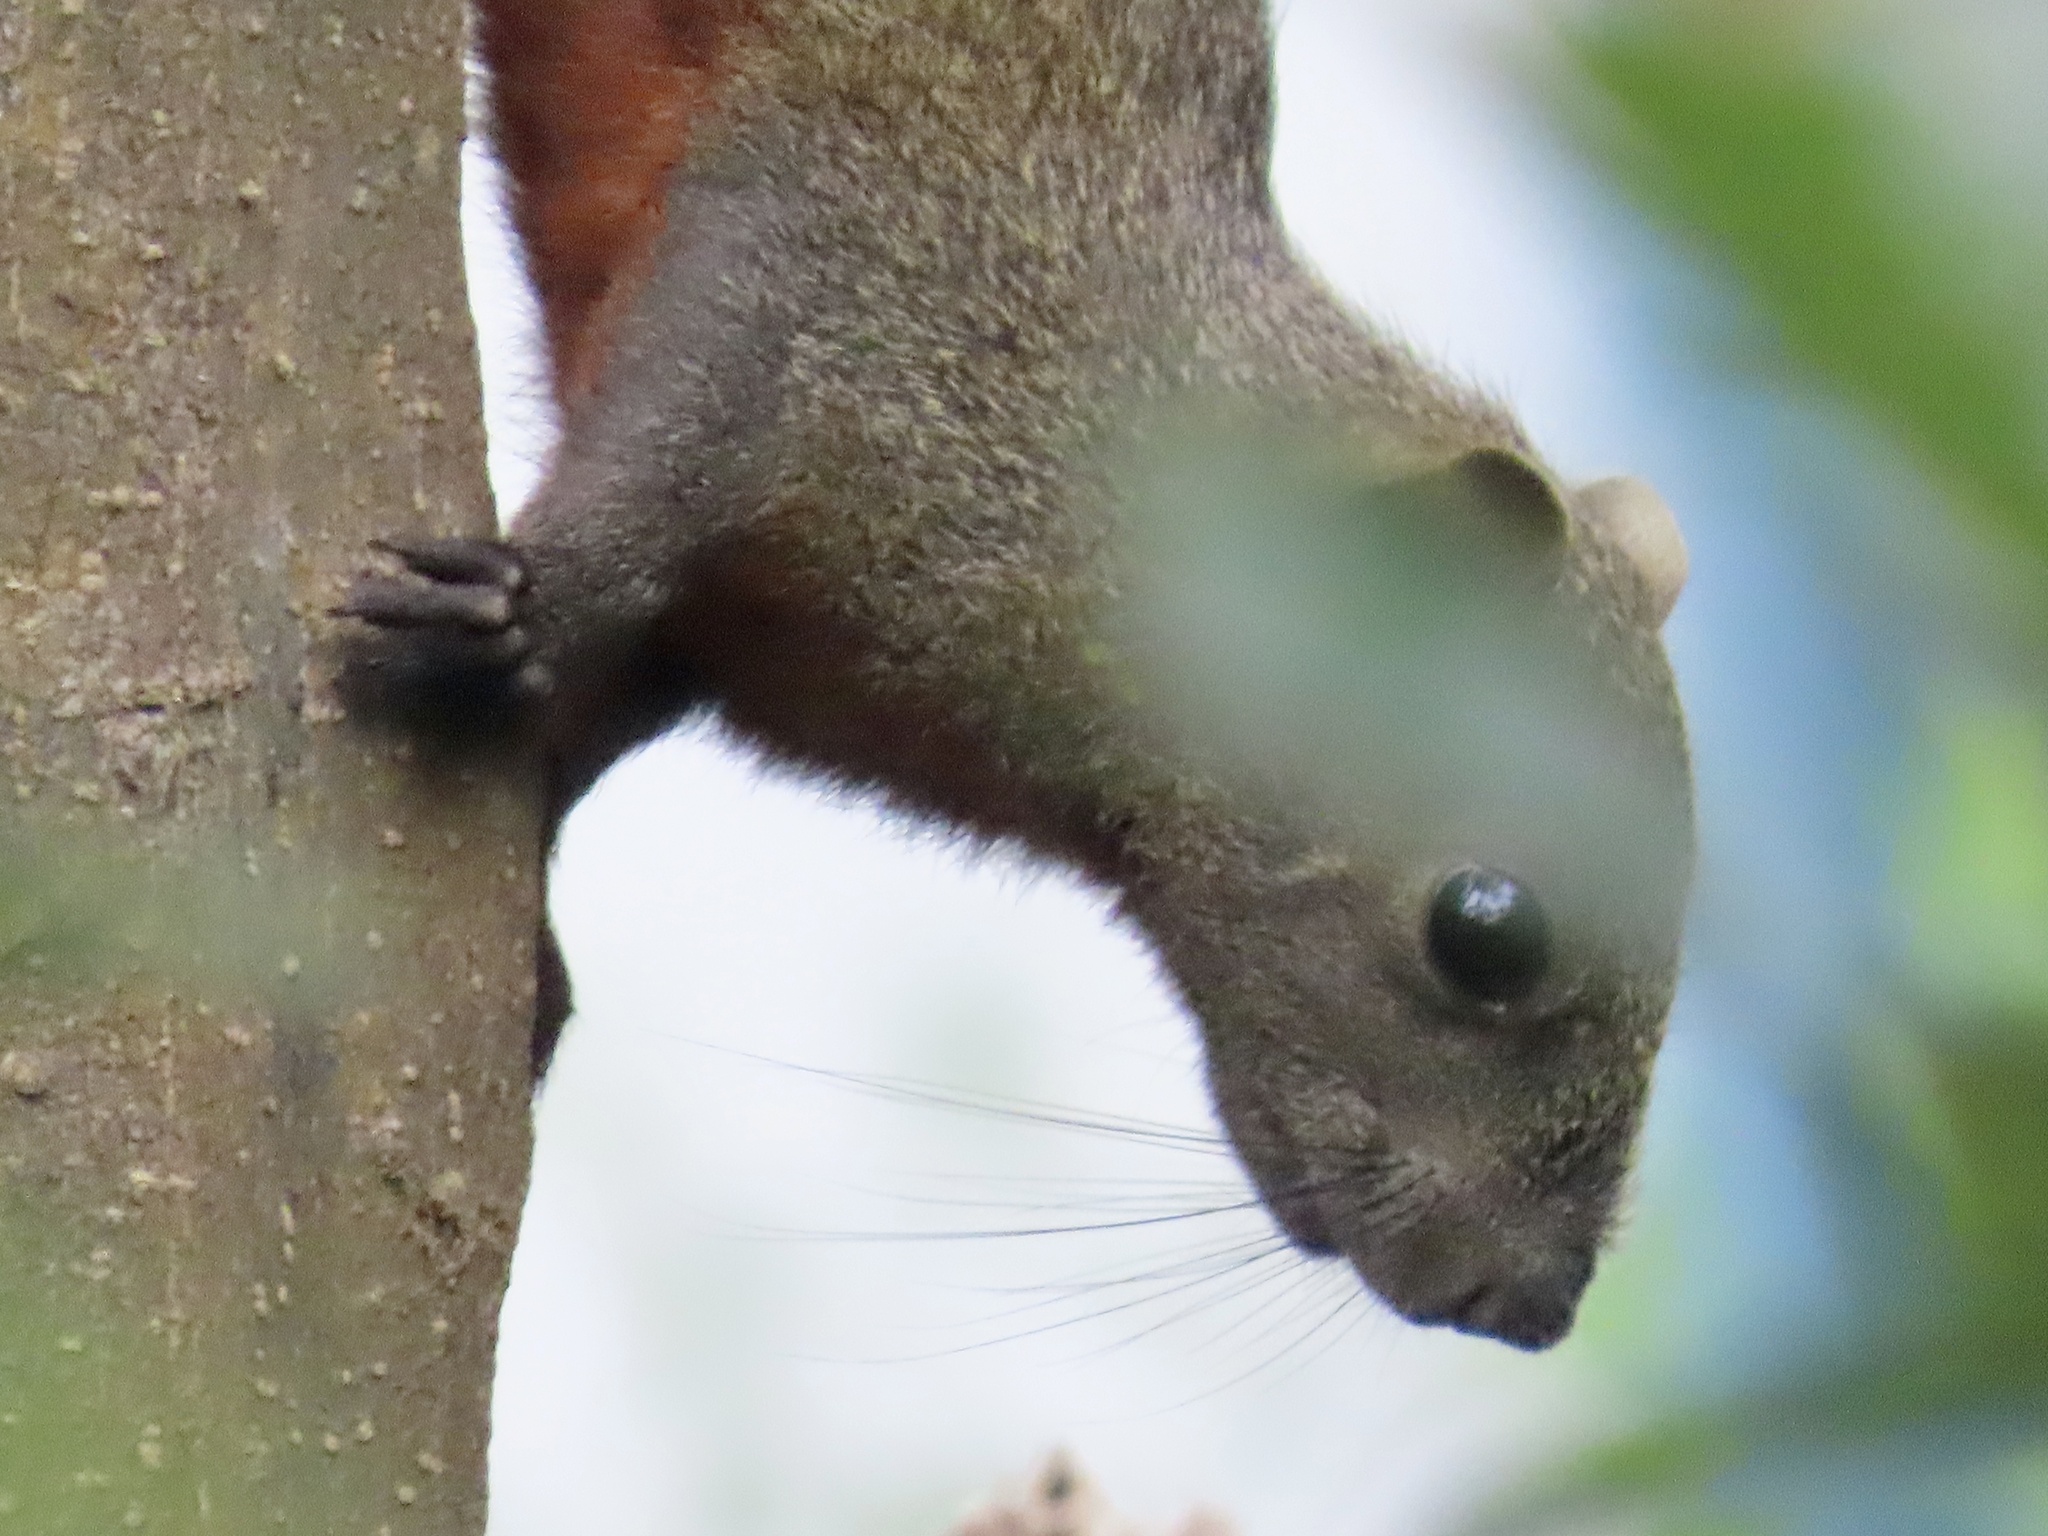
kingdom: Animalia
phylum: Chordata
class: Mammalia
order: Rodentia
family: Sciuridae
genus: Callosciurus
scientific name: Callosciurus erythraeus
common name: Pallas's squirrel
